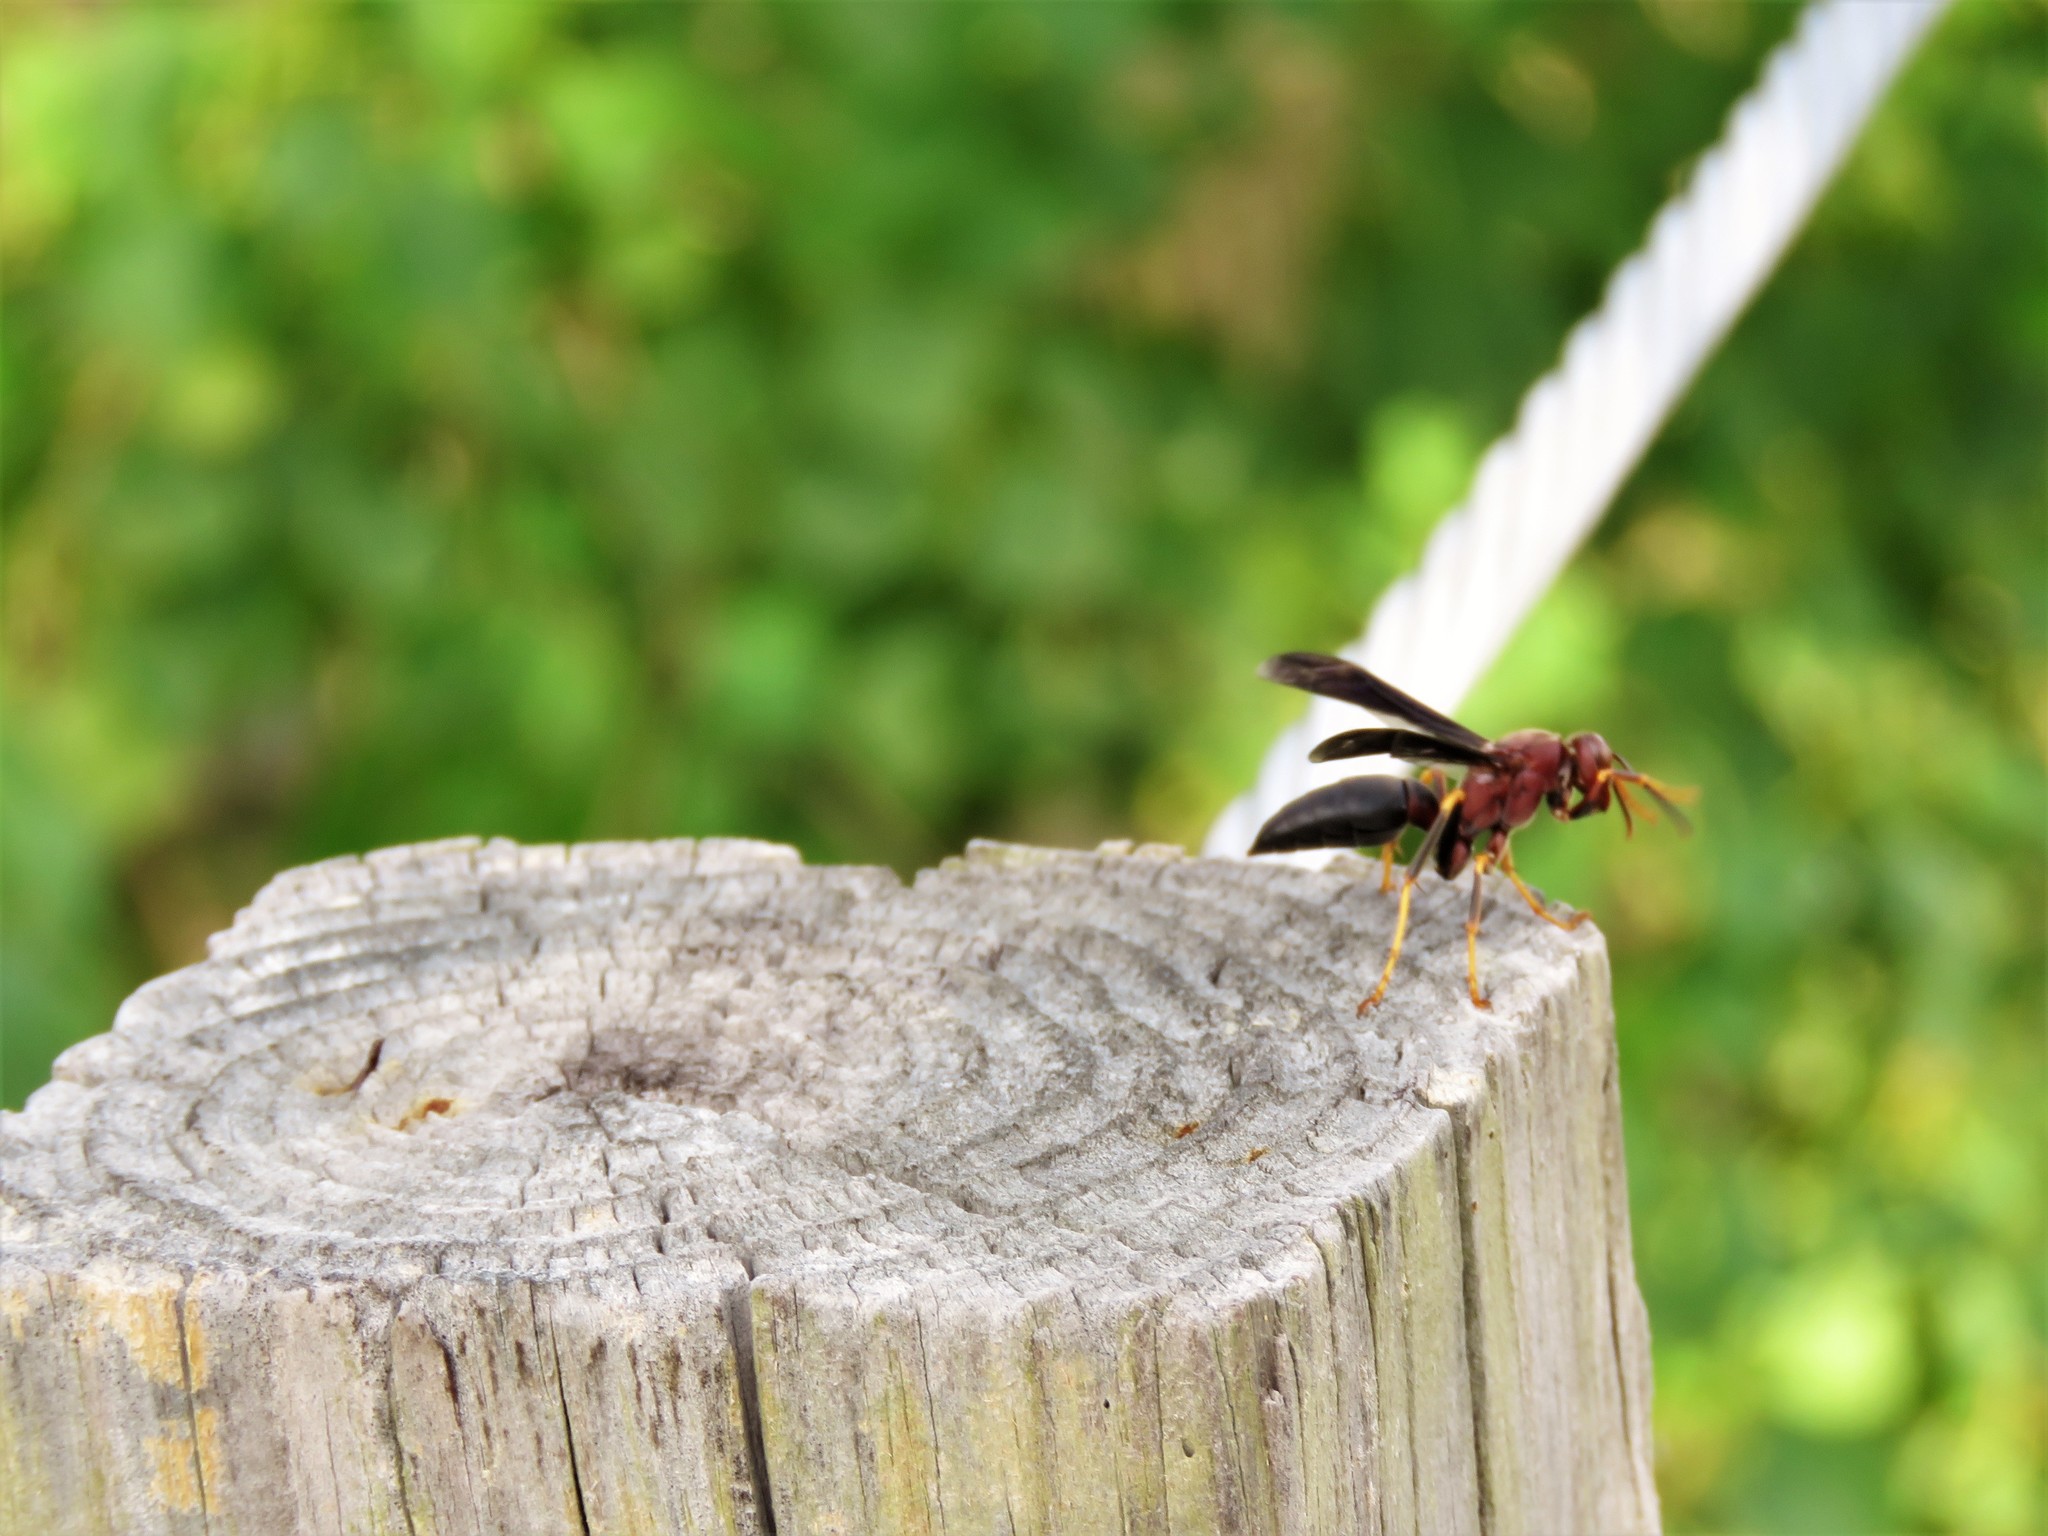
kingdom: Animalia
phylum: Arthropoda
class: Insecta
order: Hymenoptera
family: Eumenidae
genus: Polistes
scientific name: Polistes metricus
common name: Metric paper wasp
